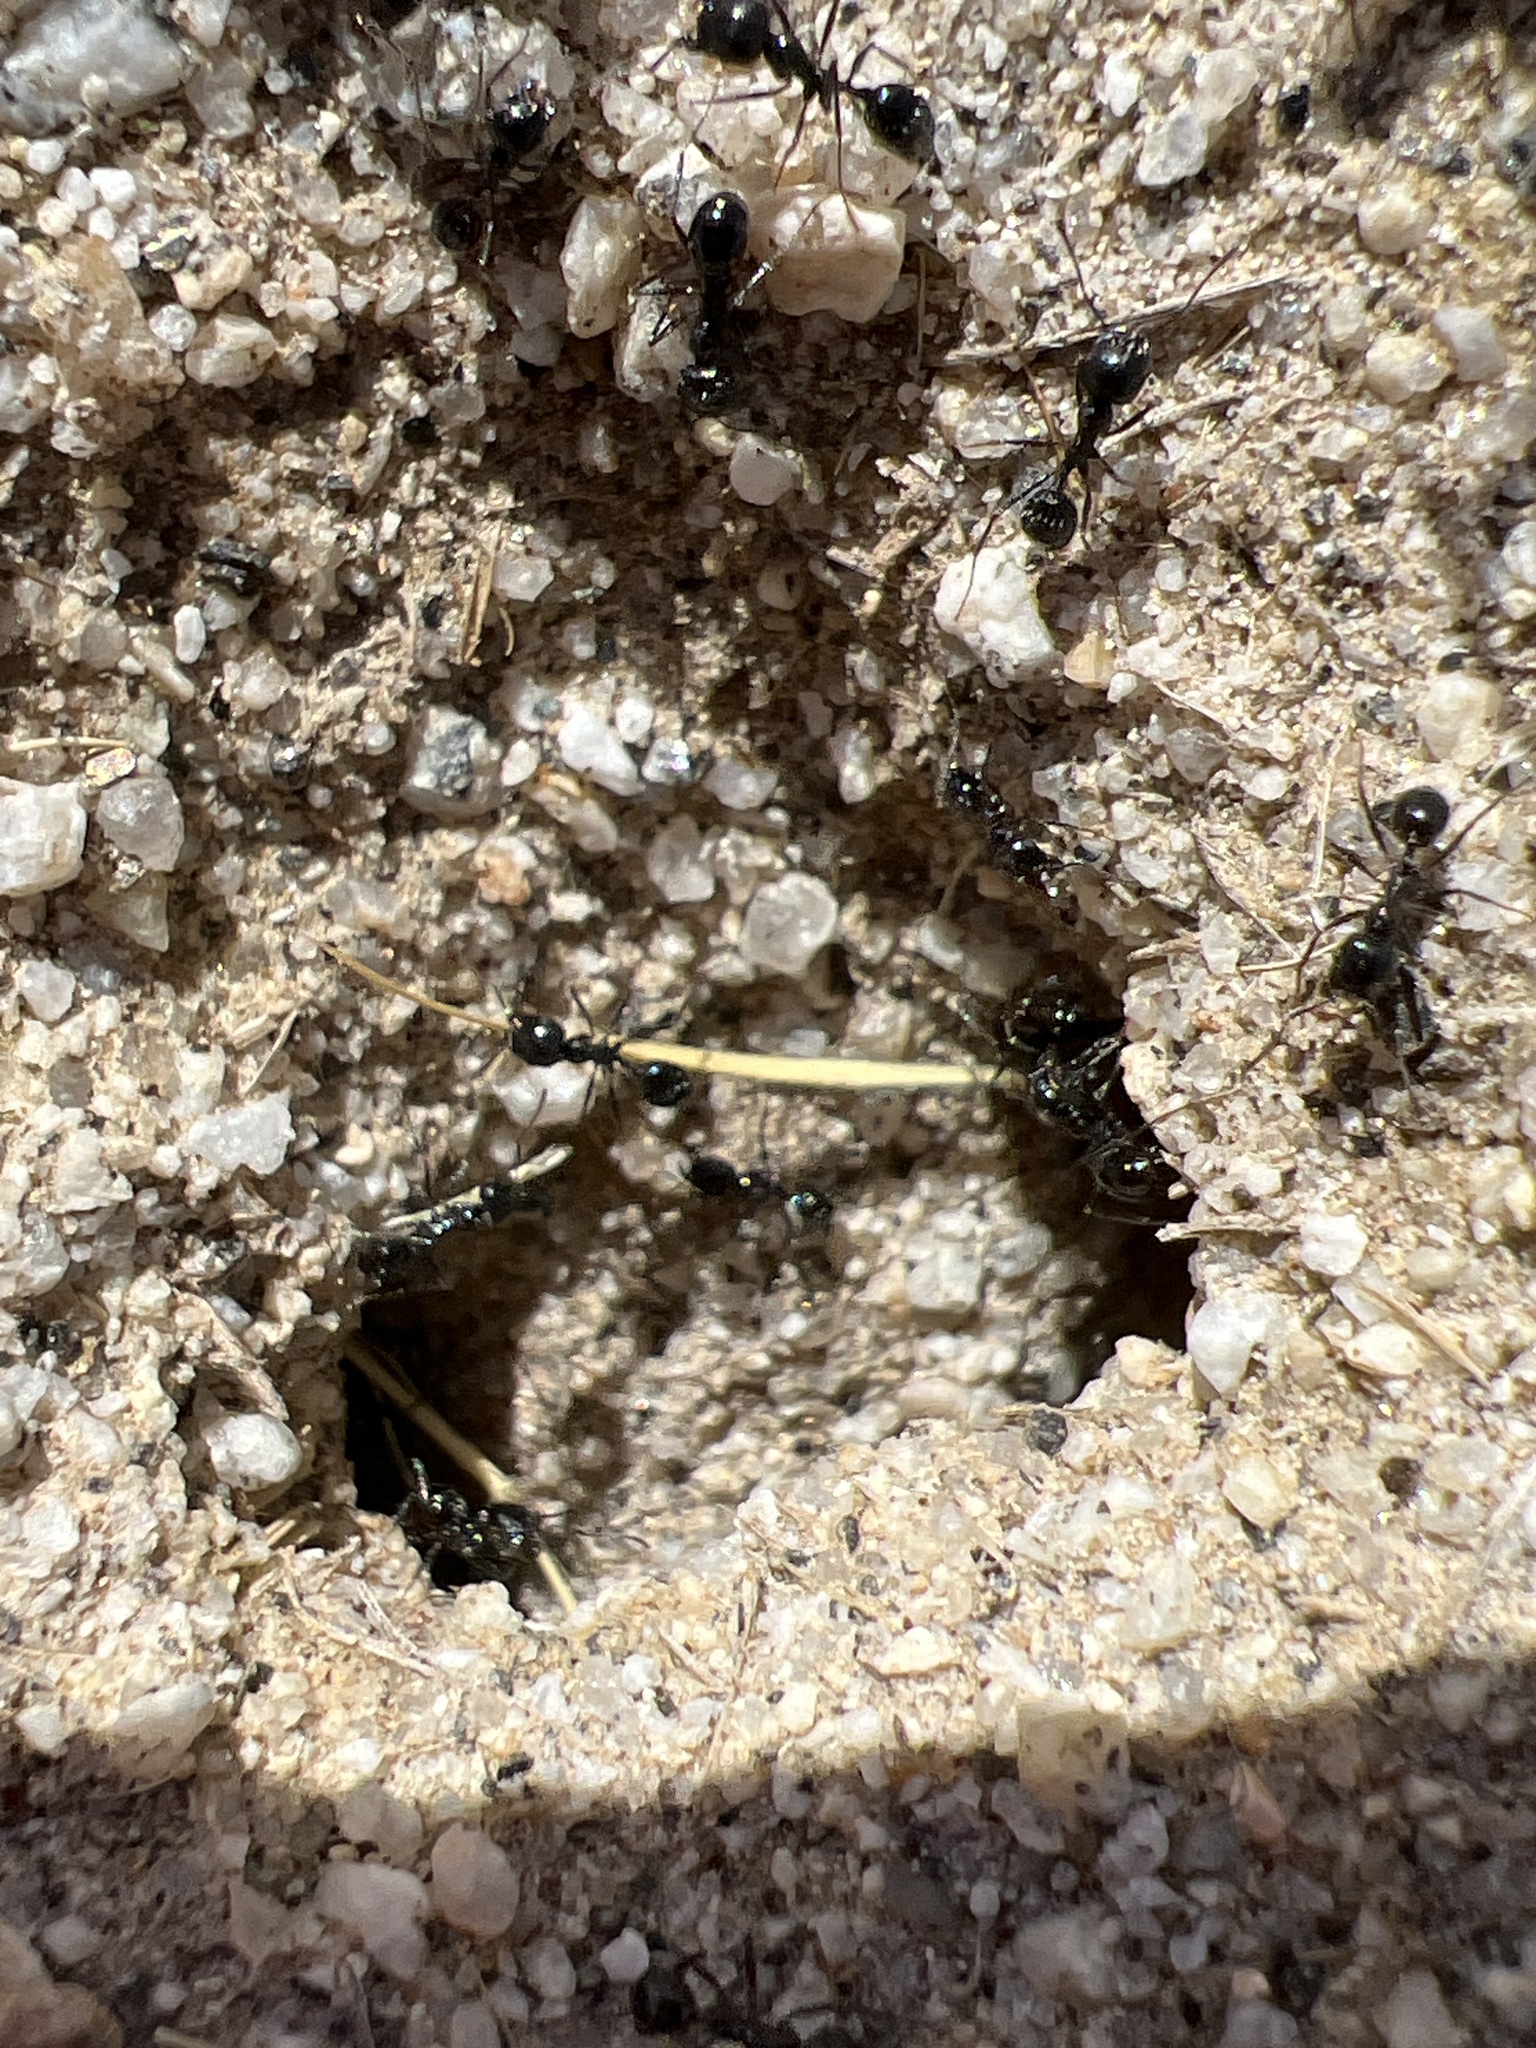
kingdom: Animalia
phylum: Arthropoda
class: Insecta
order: Hymenoptera
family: Formicidae
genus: Messor
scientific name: Messor pergandei
